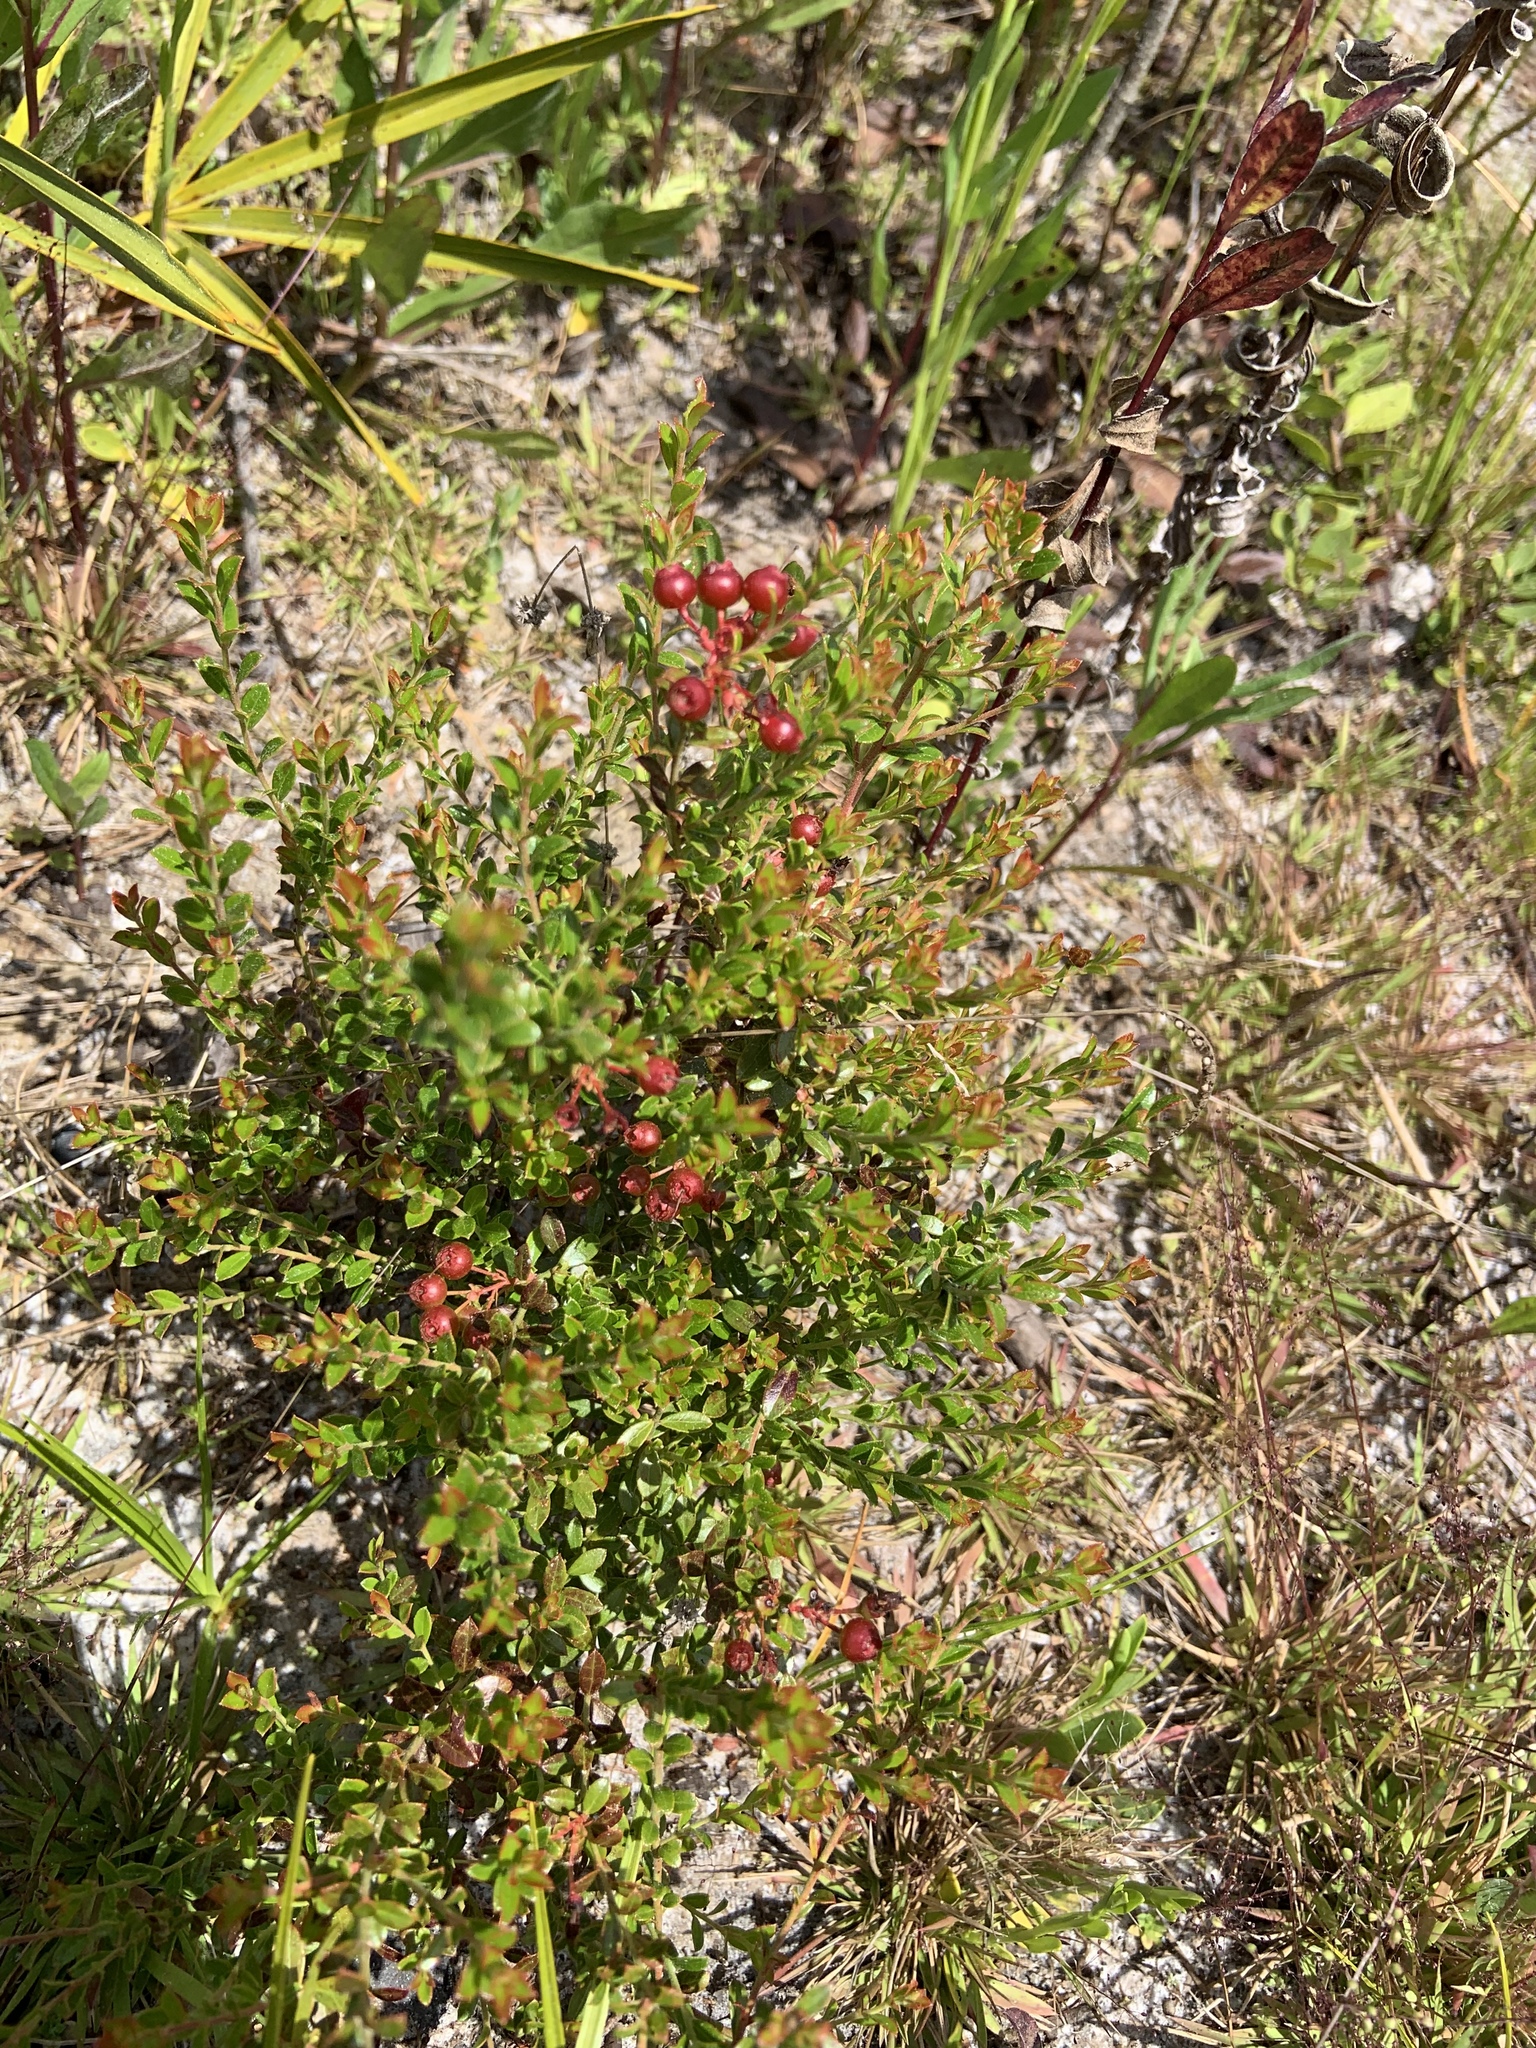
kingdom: Plantae
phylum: Tracheophyta
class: Magnoliopsida
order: Ericales
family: Ericaceae
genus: Vaccinium
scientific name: Vaccinium myrsinites
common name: Evergreen blueberry
